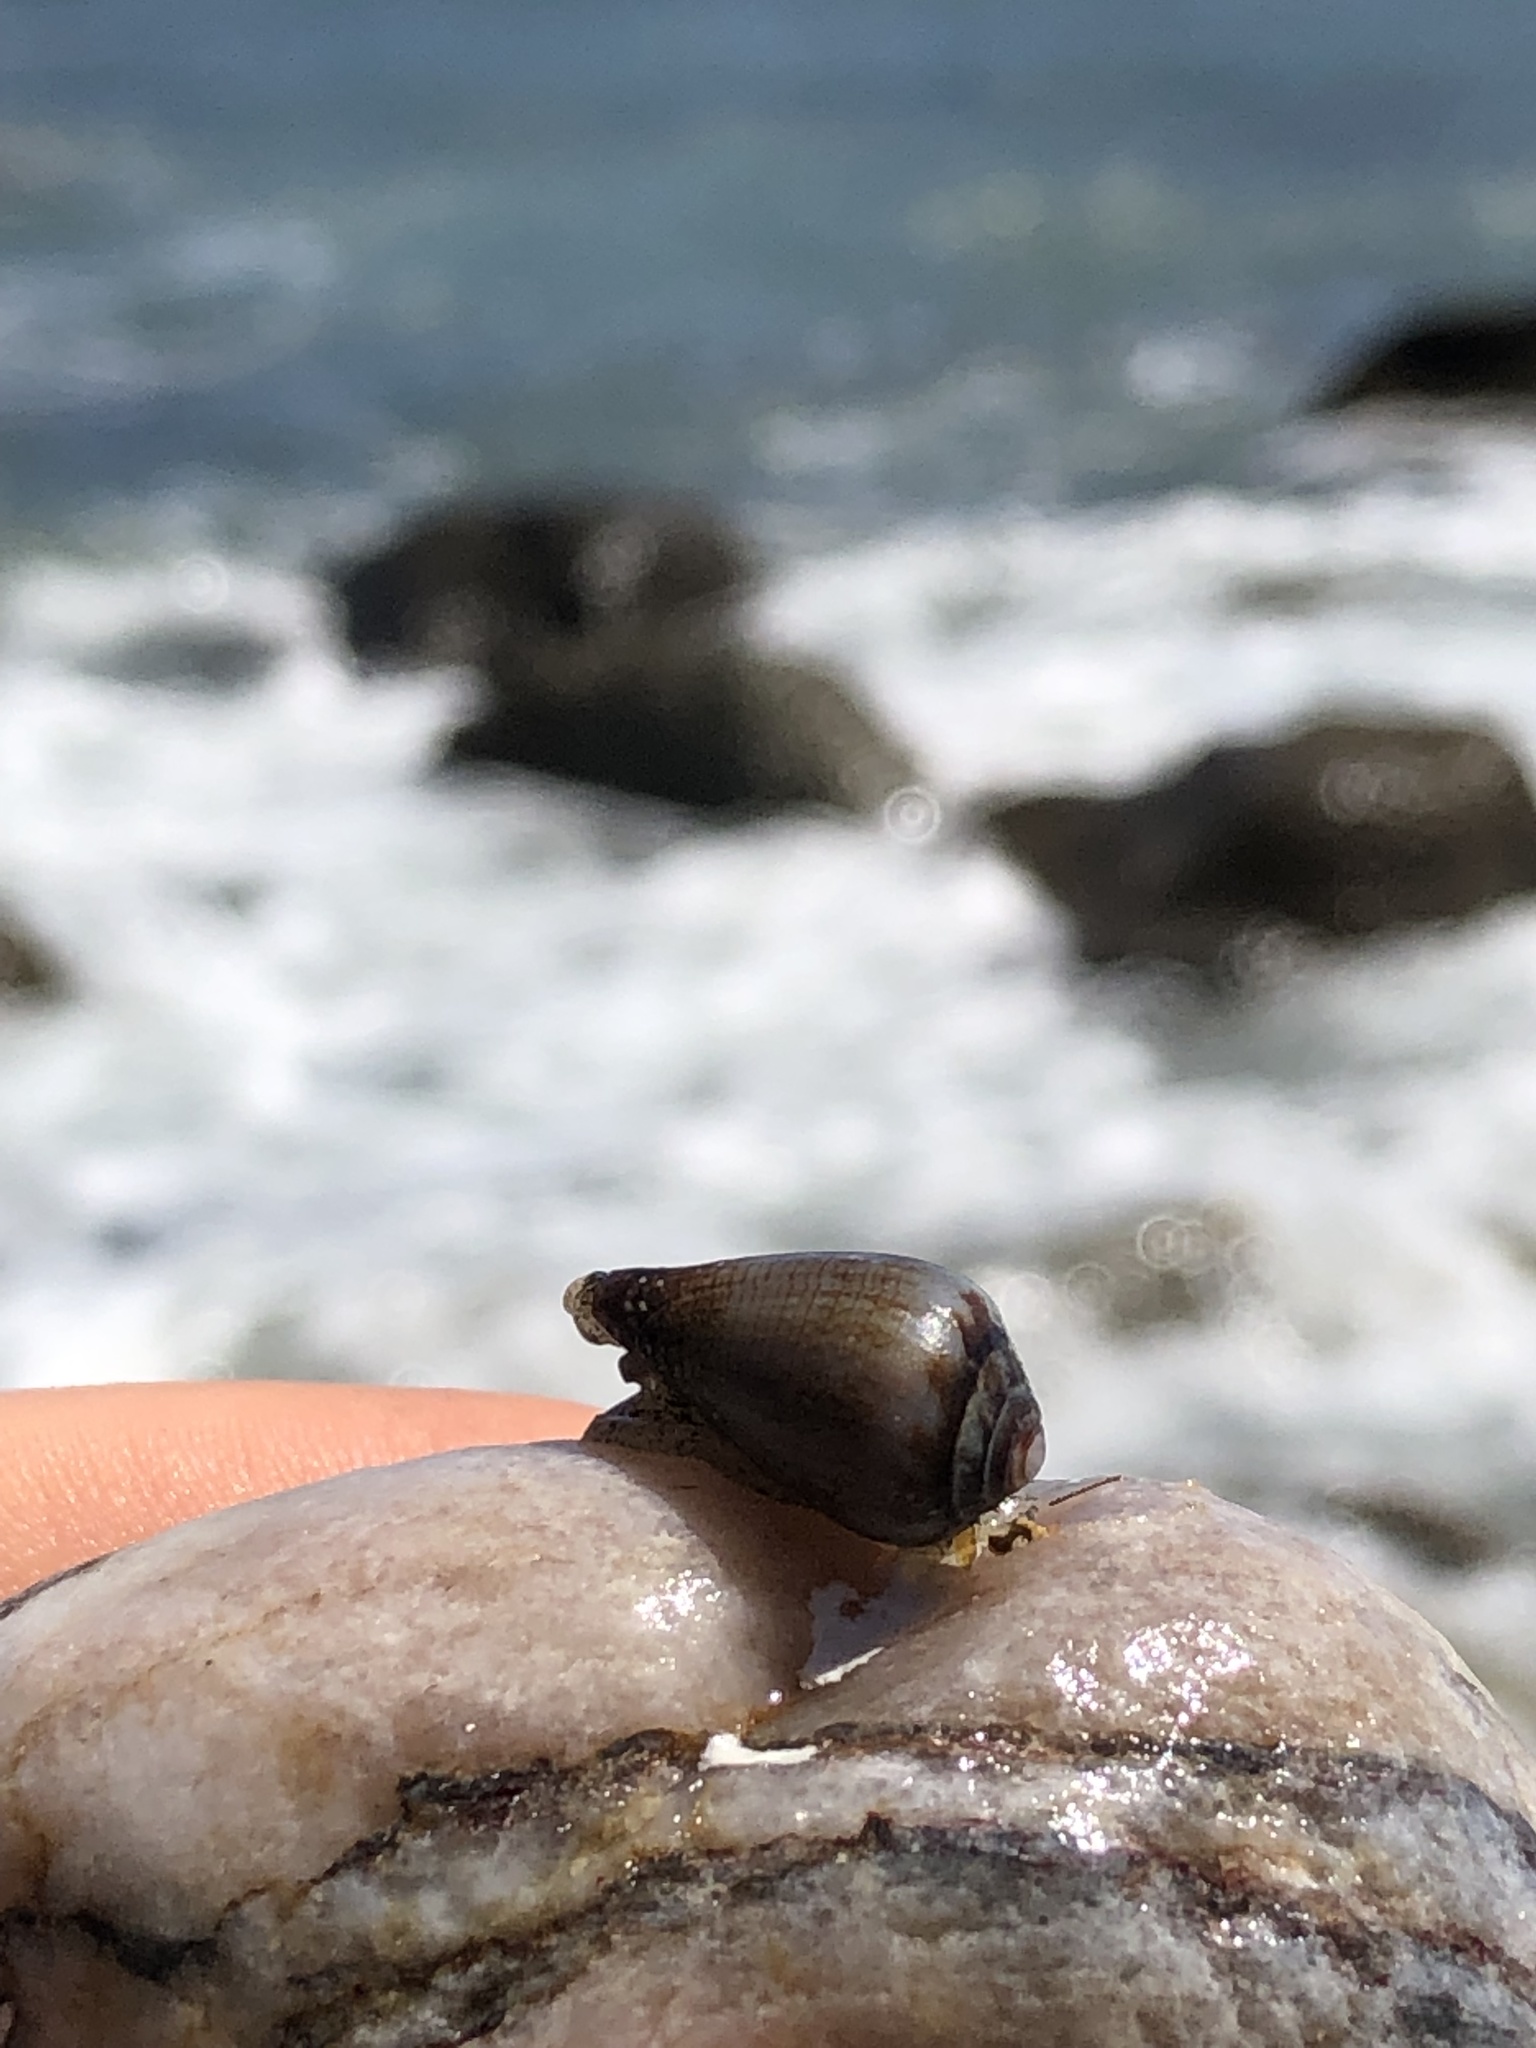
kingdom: Animalia
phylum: Mollusca
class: Gastropoda
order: Neogastropoda
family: Conidae
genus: Californiconus
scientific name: Californiconus californicus
